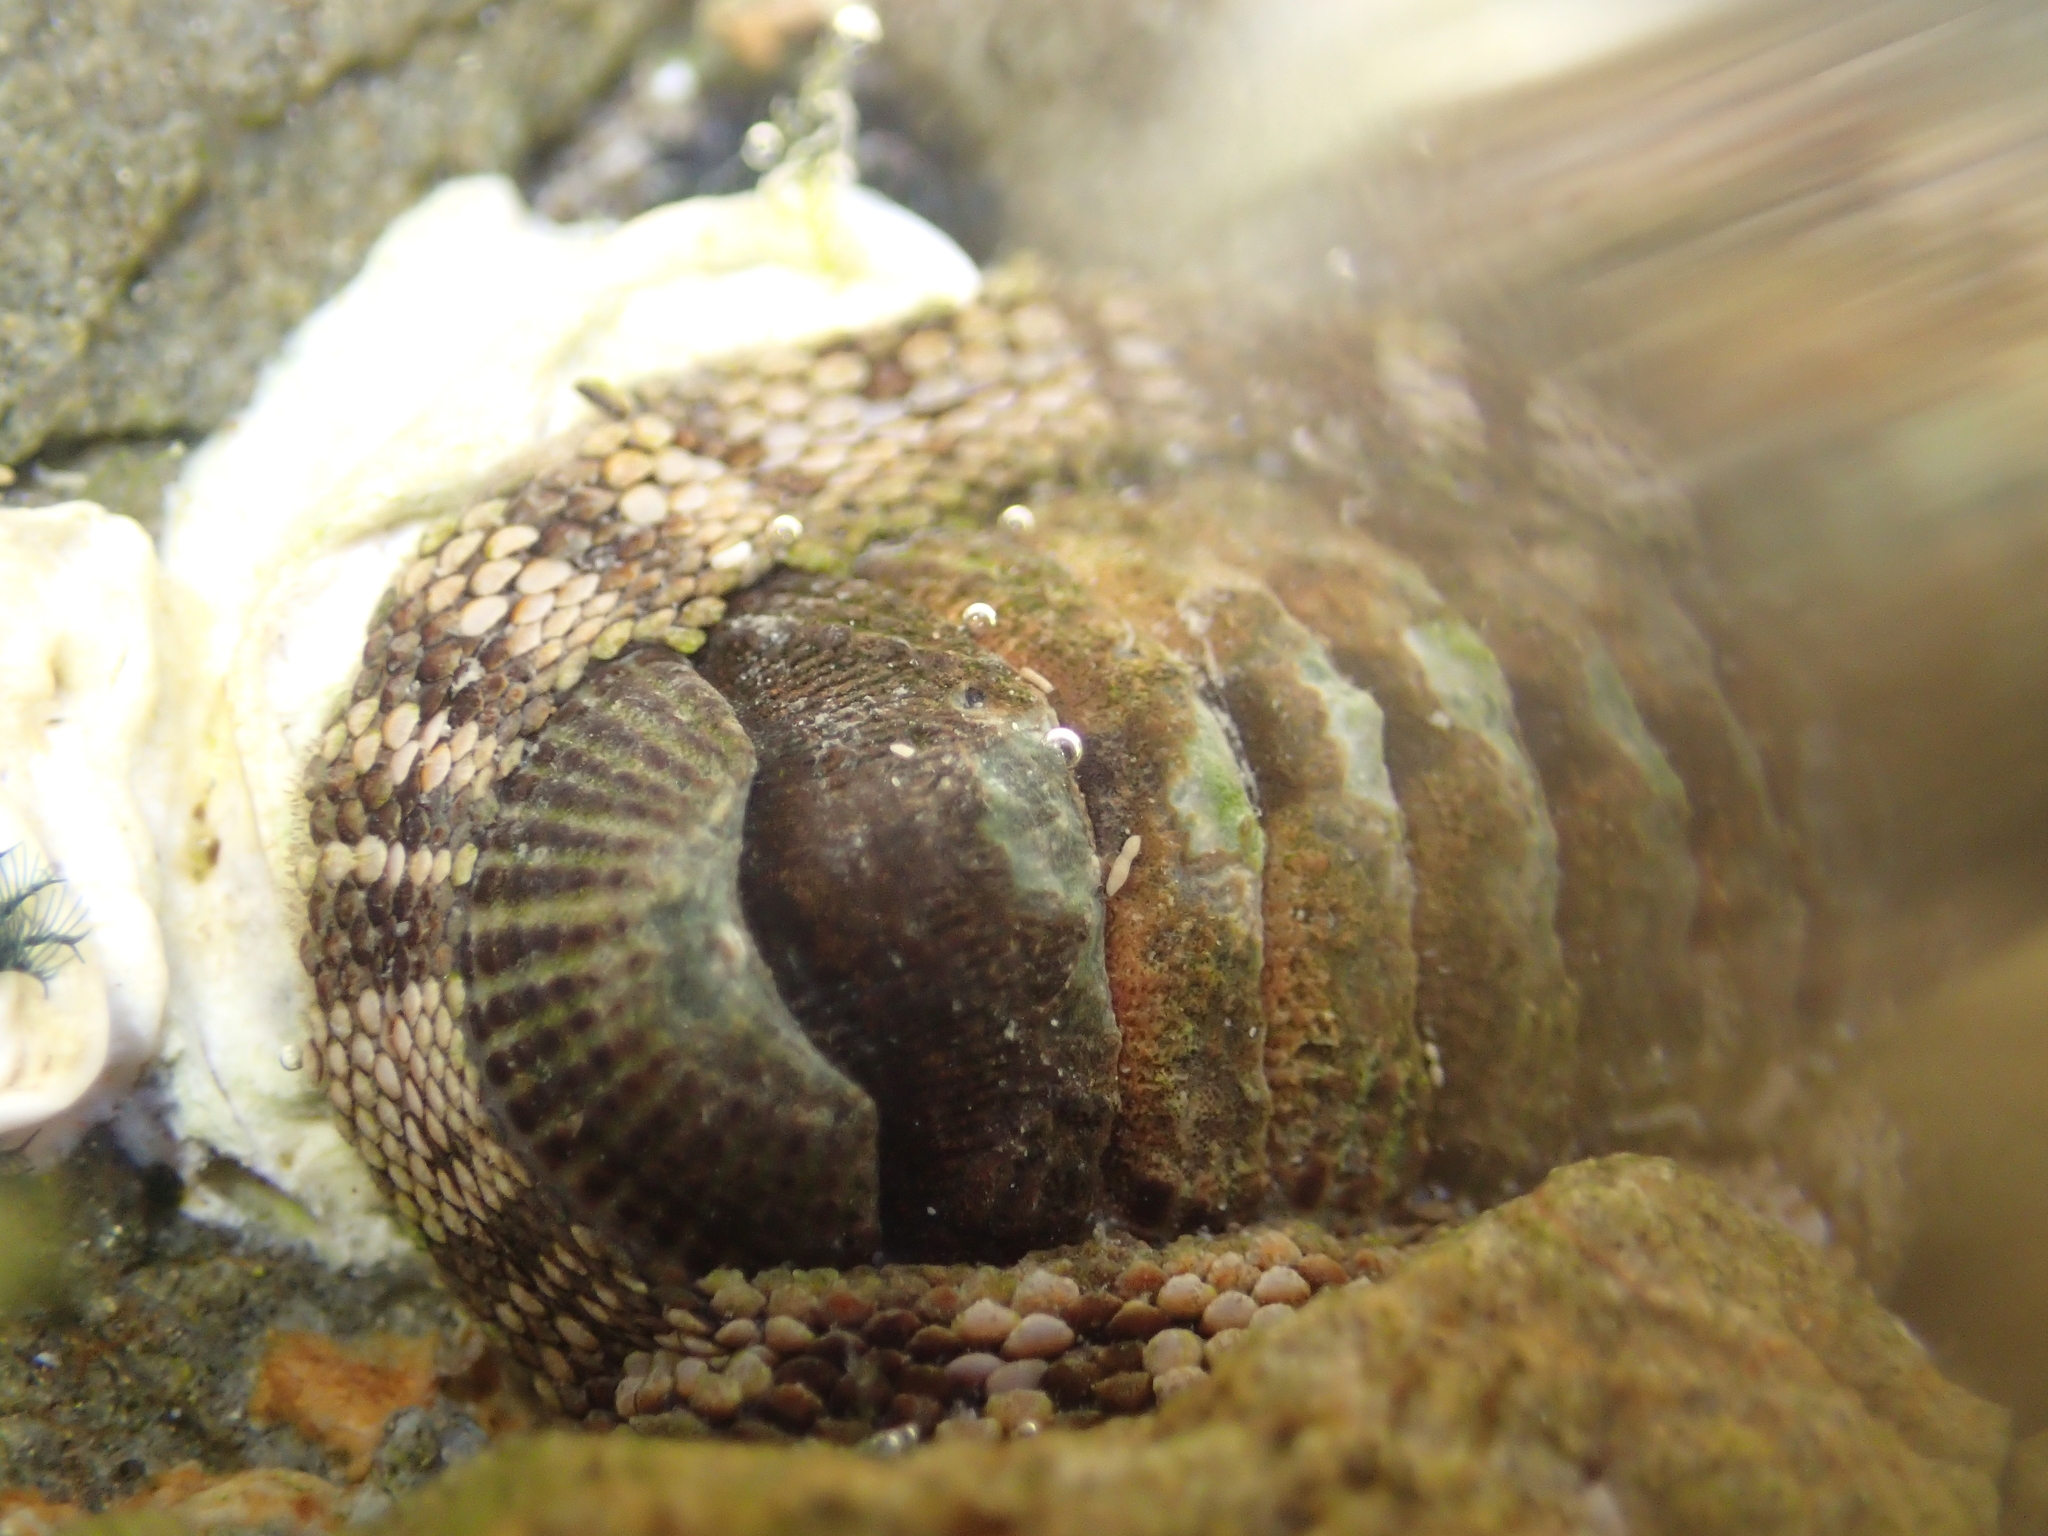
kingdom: Animalia
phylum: Mollusca
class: Polyplacophora
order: Chitonida
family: Chitonidae
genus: Sypharochiton
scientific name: Sypharochiton pelliserpentis
